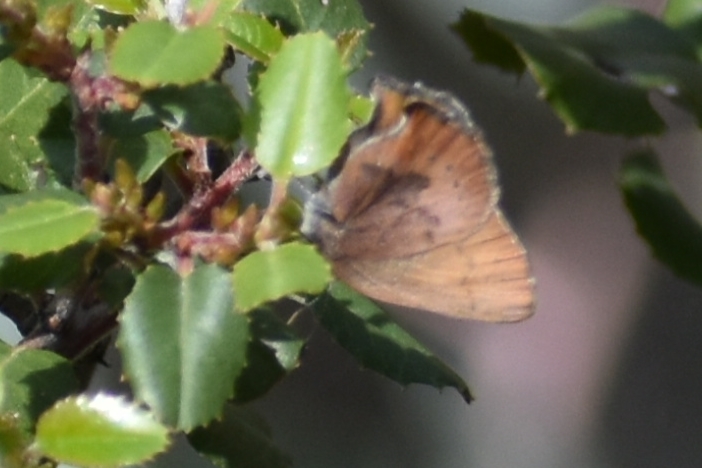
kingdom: Animalia
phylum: Arthropoda
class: Insecta
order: Lepidoptera
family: Lycaenidae
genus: Thecla
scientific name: Thecla iroides
